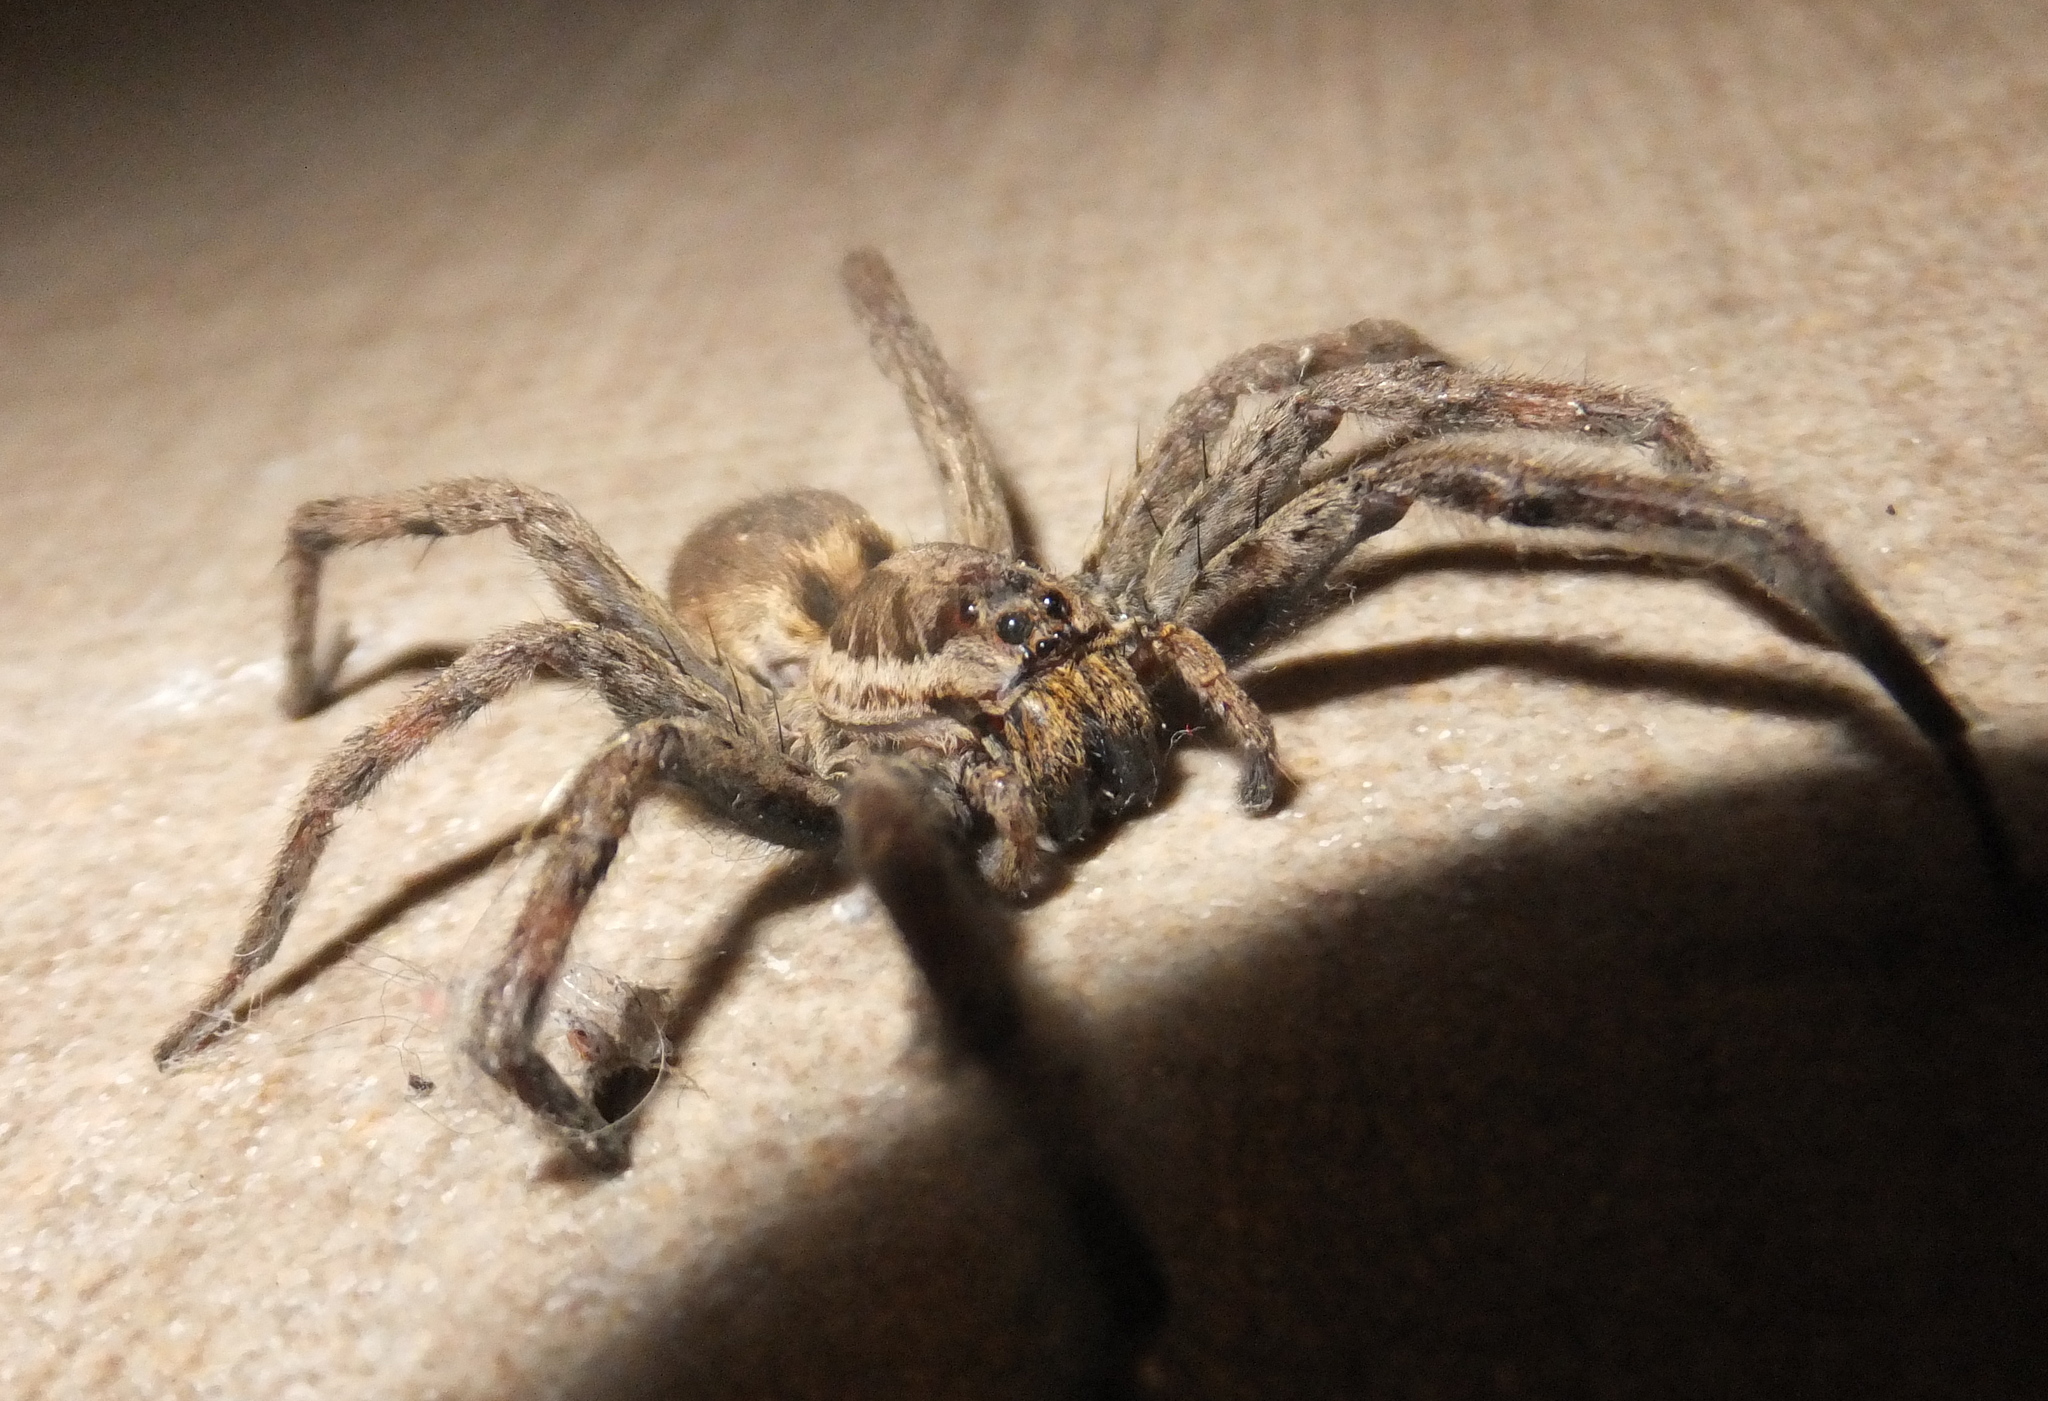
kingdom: Animalia
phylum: Arthropoda
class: Arachnida
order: Araneae
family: Lycosidae
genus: Hogna
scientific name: Hogna radiata
